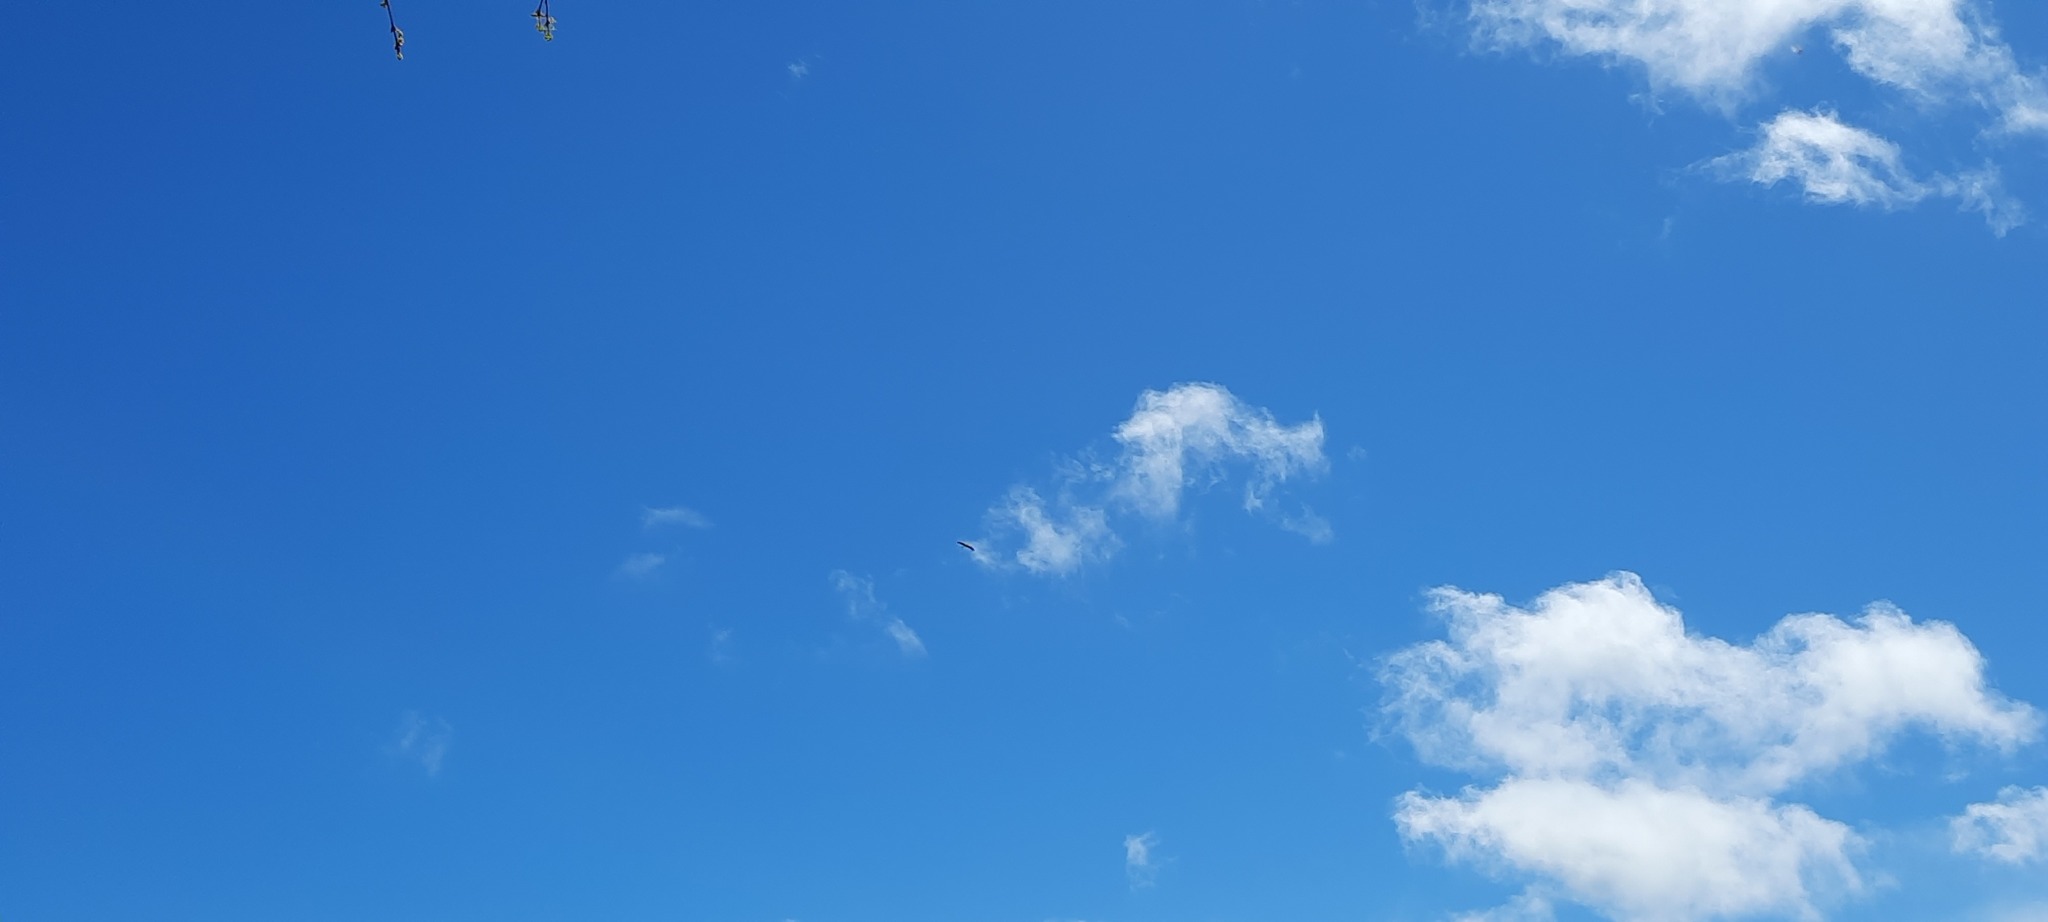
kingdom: Animalia
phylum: Chordata
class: Aves
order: Ciconiiformes
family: Ciconiidae
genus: Ciconia
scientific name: Ciconia ciconia
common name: White stork
